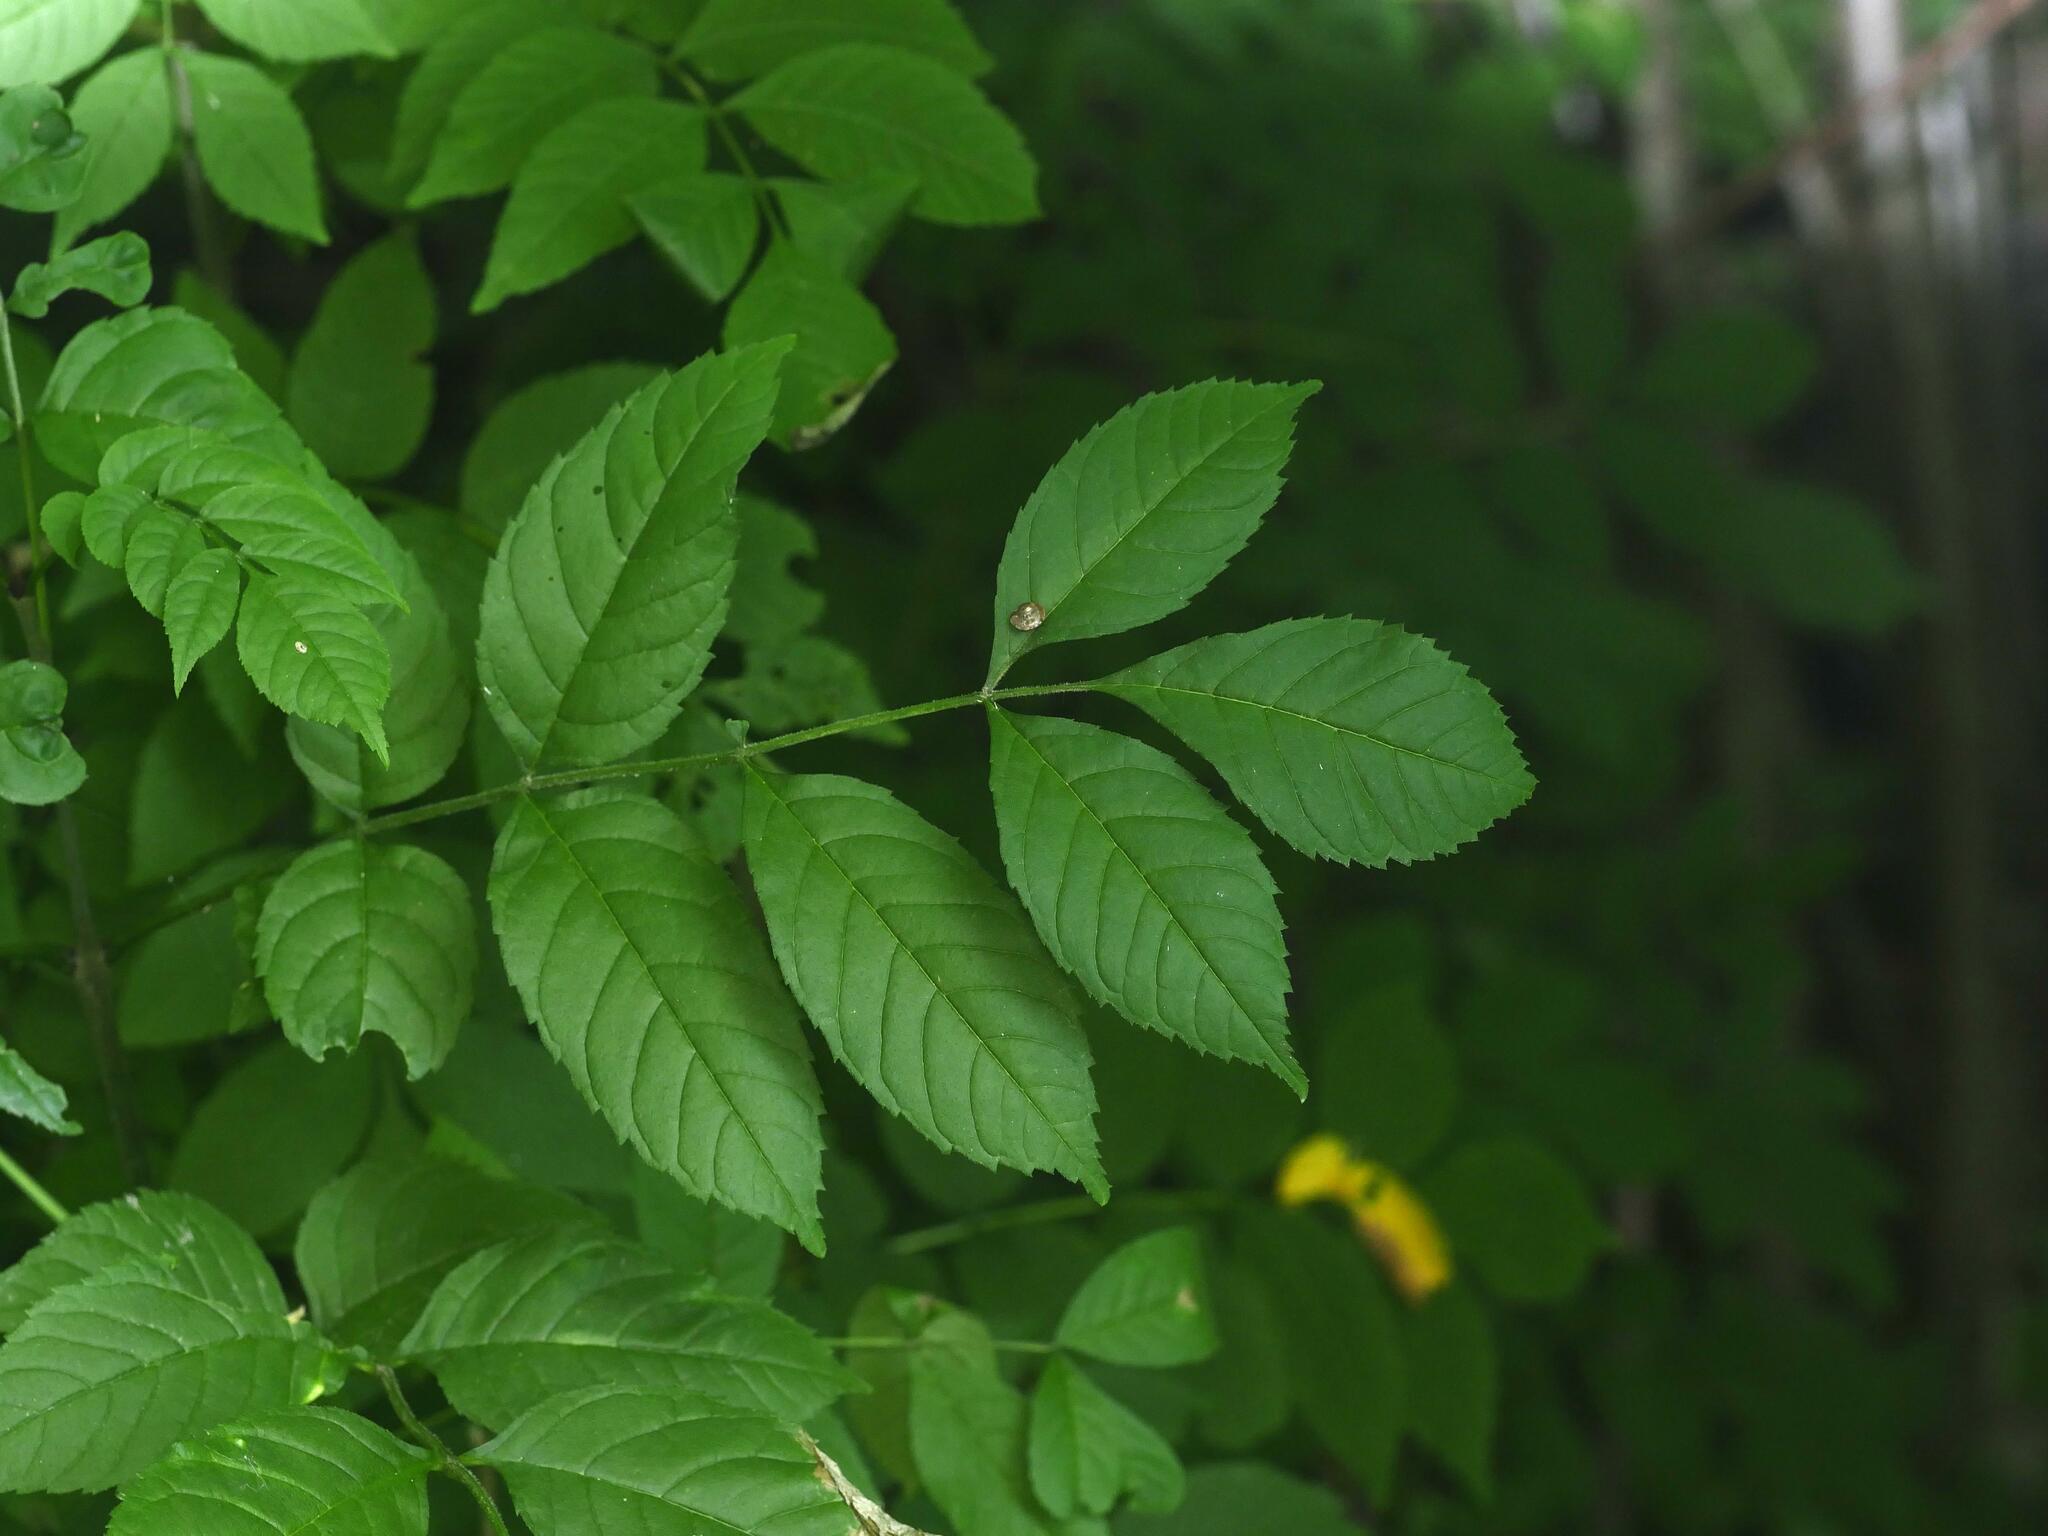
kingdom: Plantae
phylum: Tracheophyta
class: Magnoliopsida
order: Lamiales
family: Oleaceae
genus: Fraxinus
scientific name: Fraxinus excelsior
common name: European ash
